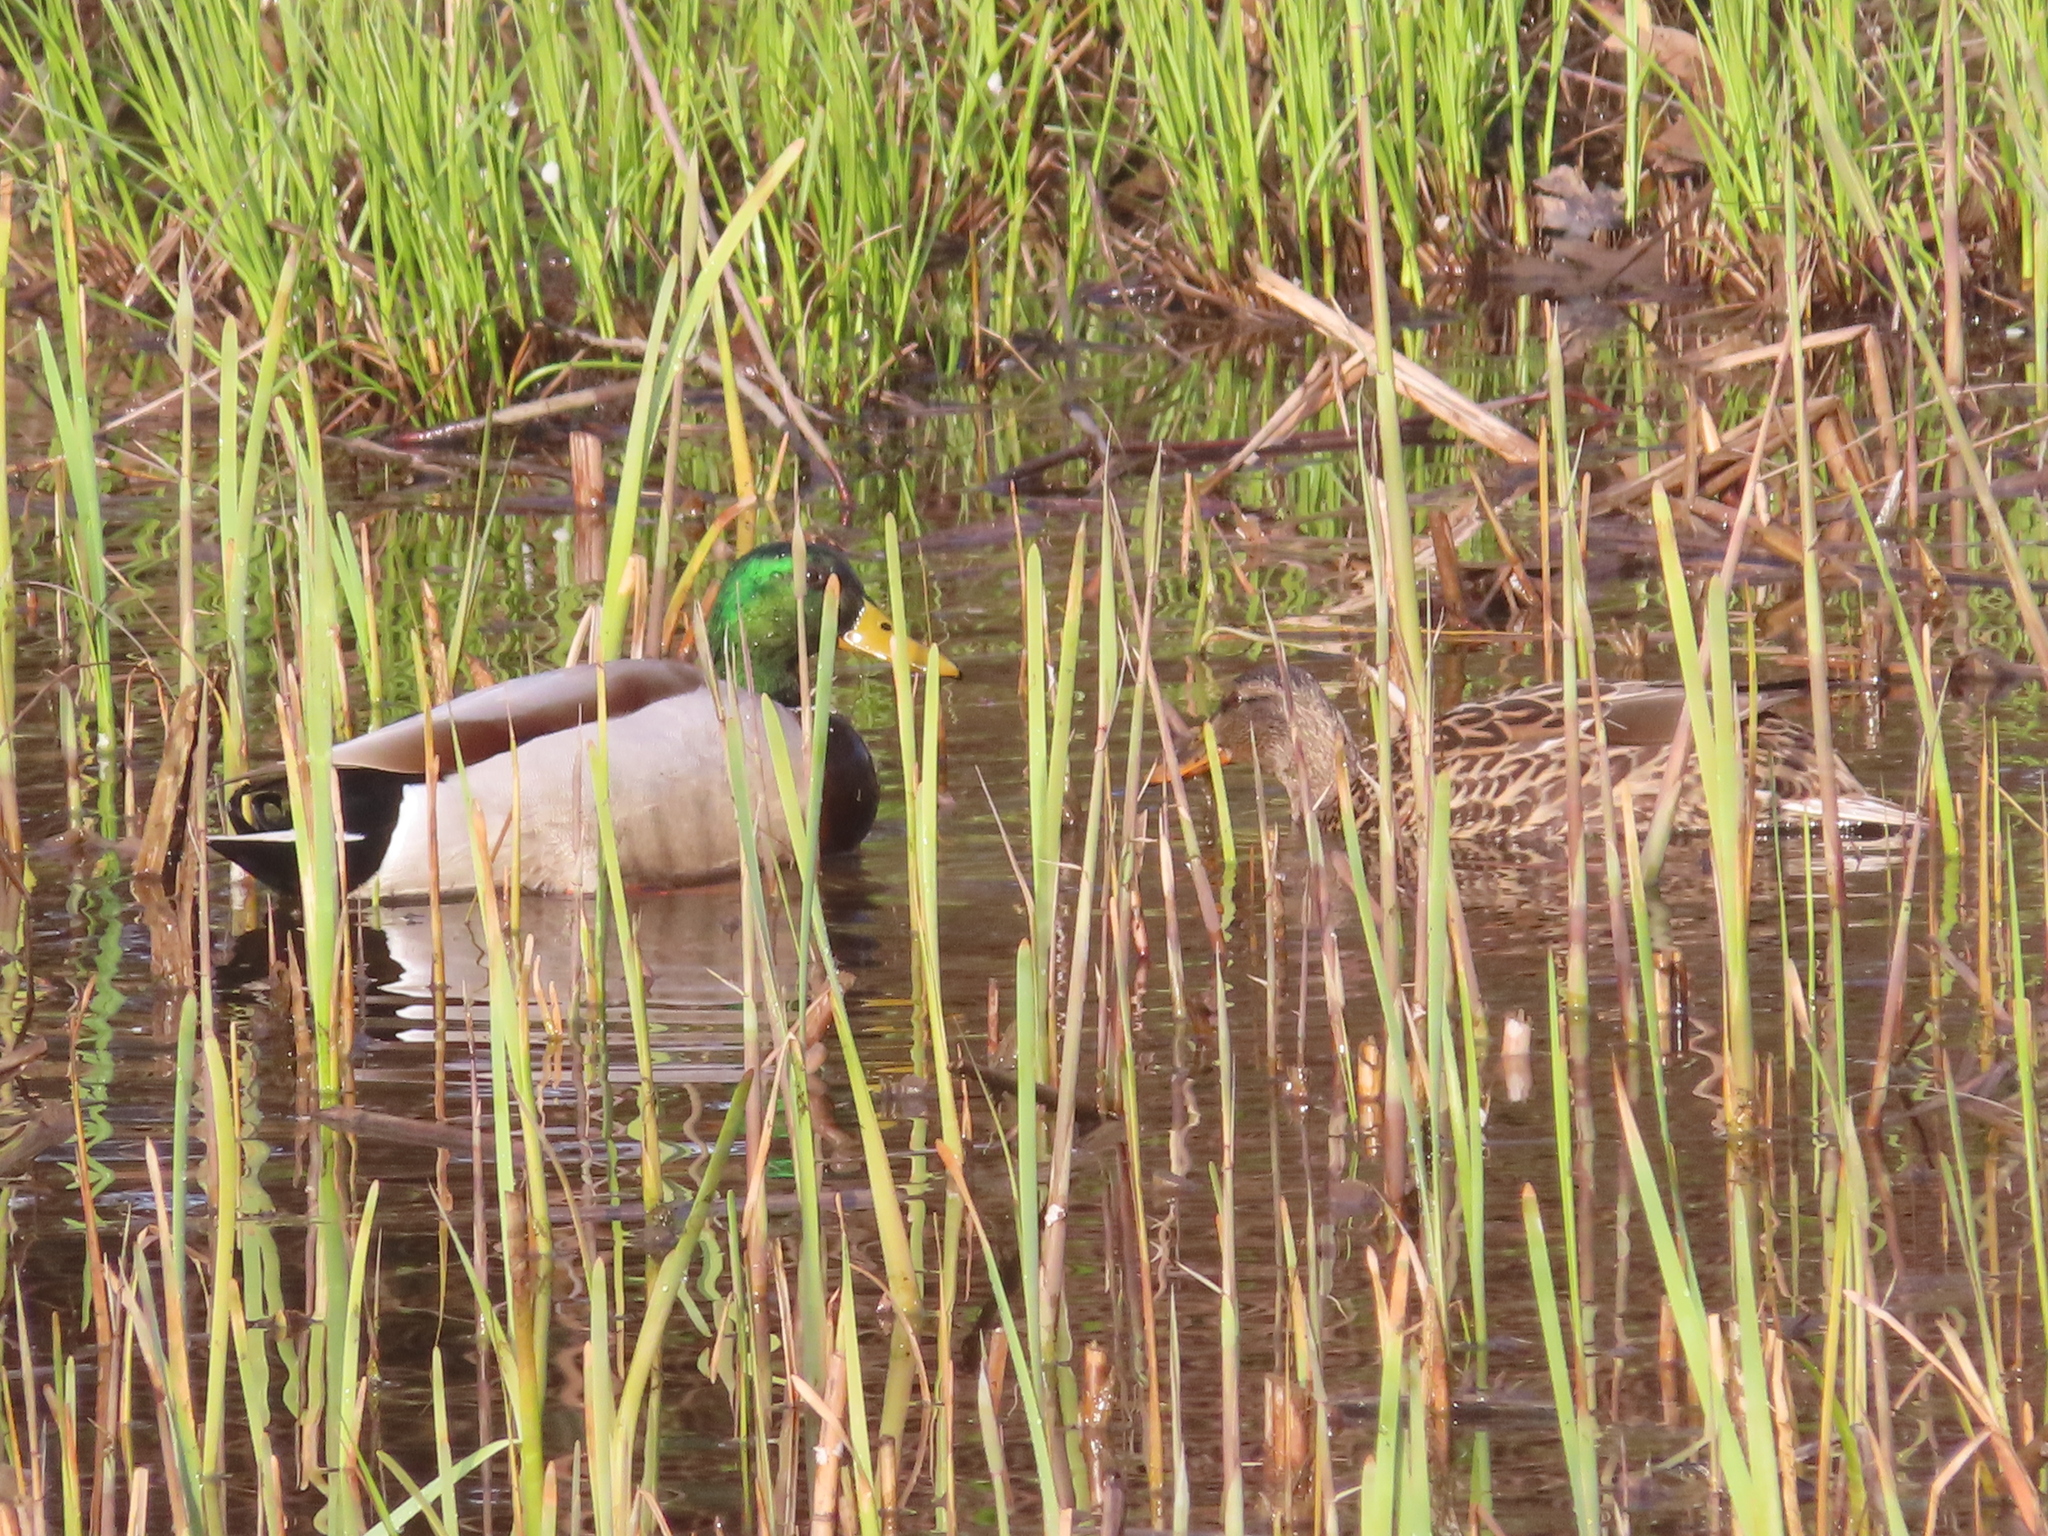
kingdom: Animalia
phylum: Chordata
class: Aves
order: Anseriformes
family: Anatidae
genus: Anas
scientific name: Anas platyrhynchos
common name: Mallard
